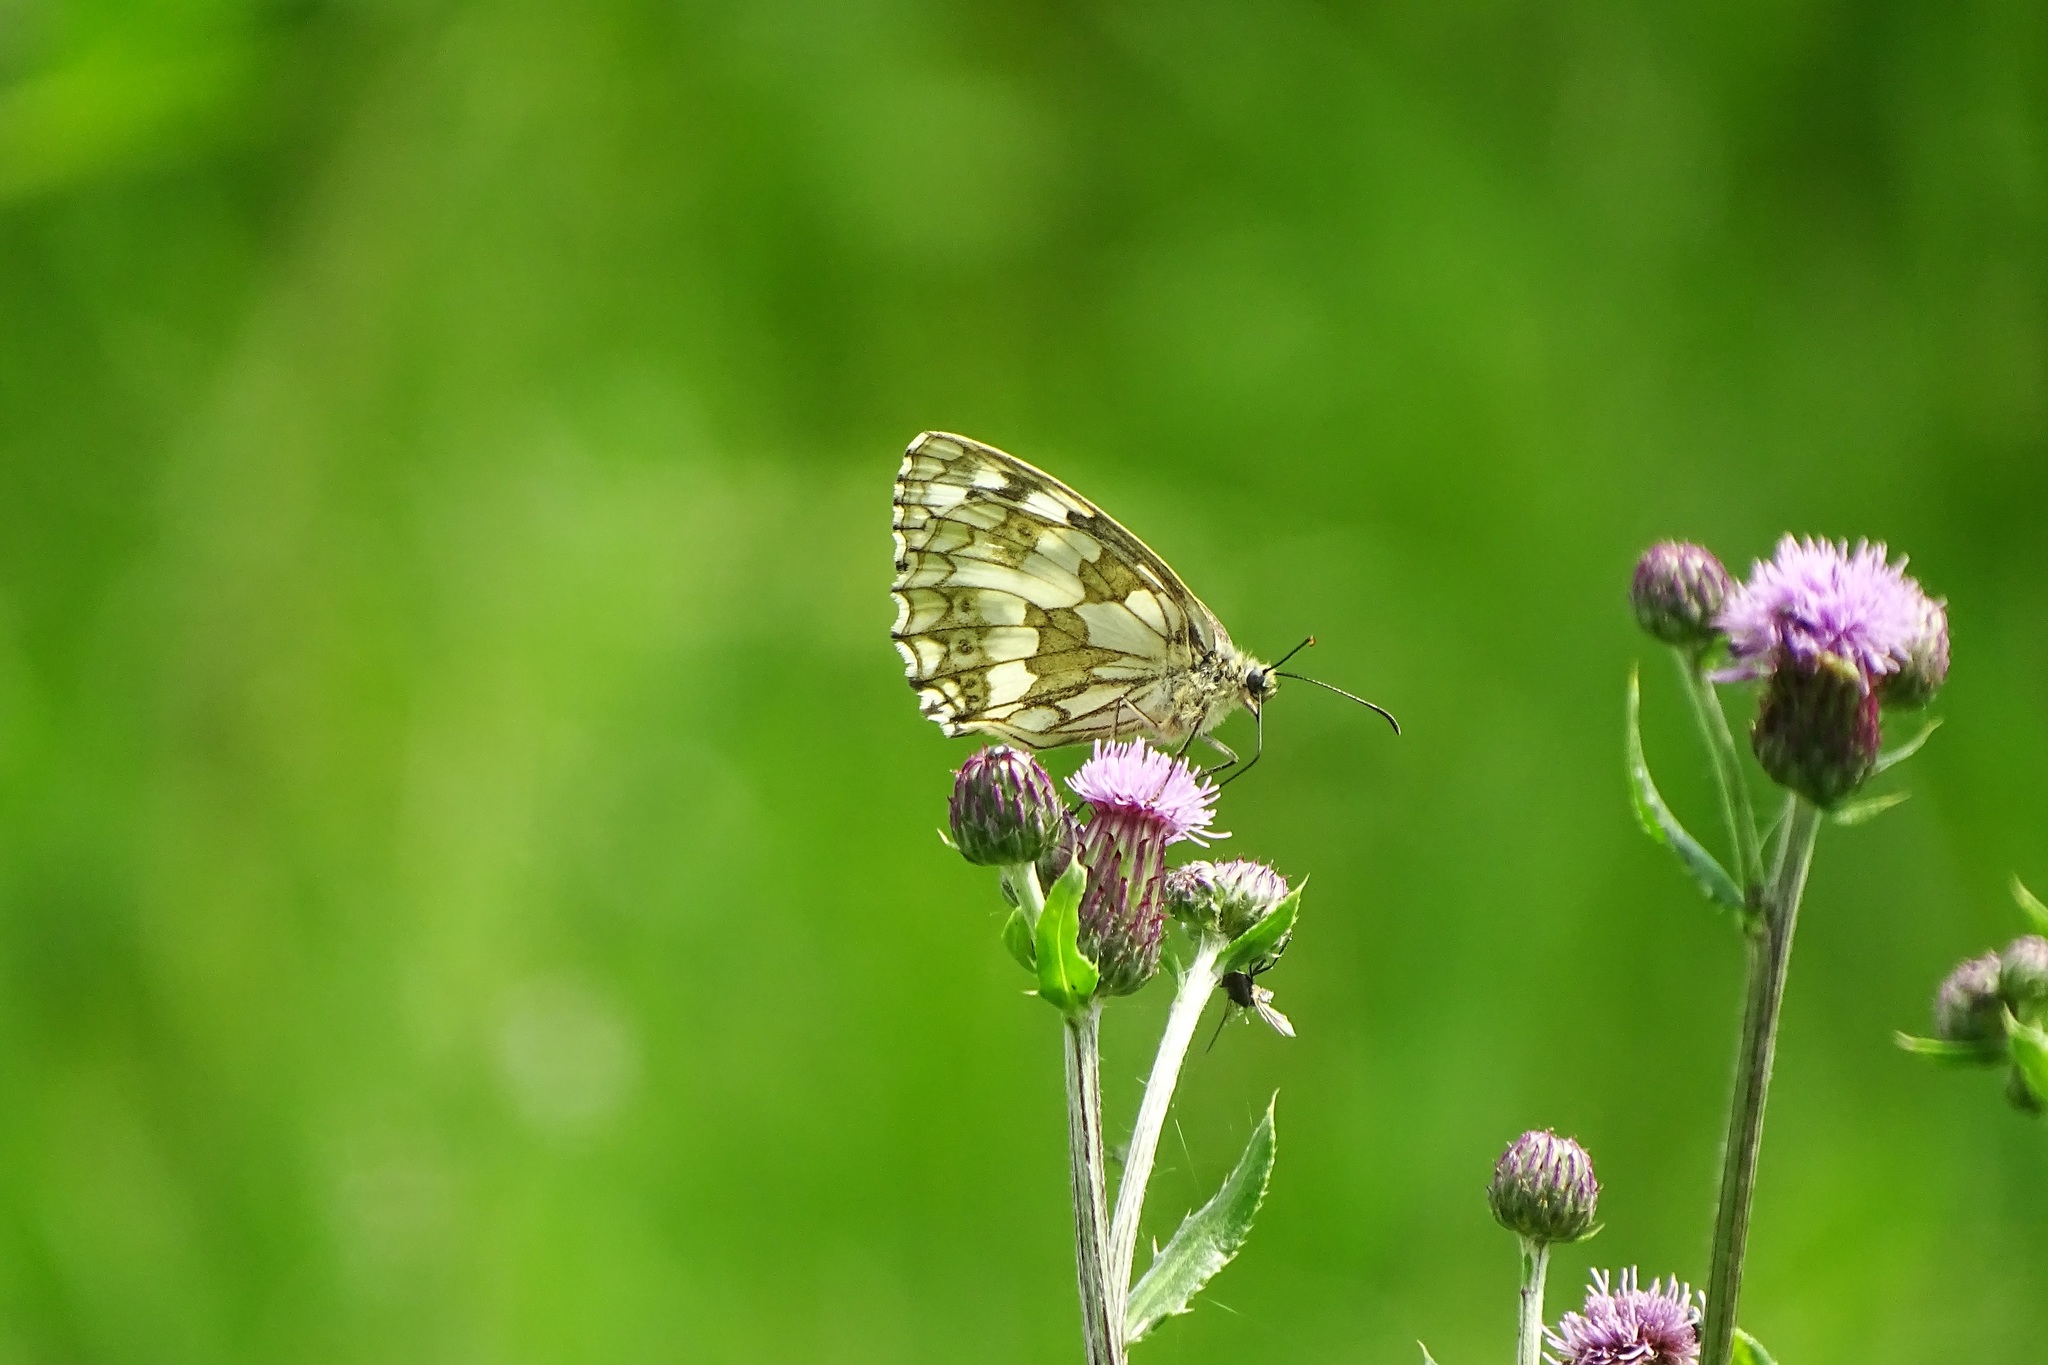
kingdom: Animalia
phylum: Arthropoda
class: Insecta
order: Lepidoptera
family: Nymphalidae
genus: Melanargia
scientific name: Melanargia galathea
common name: Marbled white
